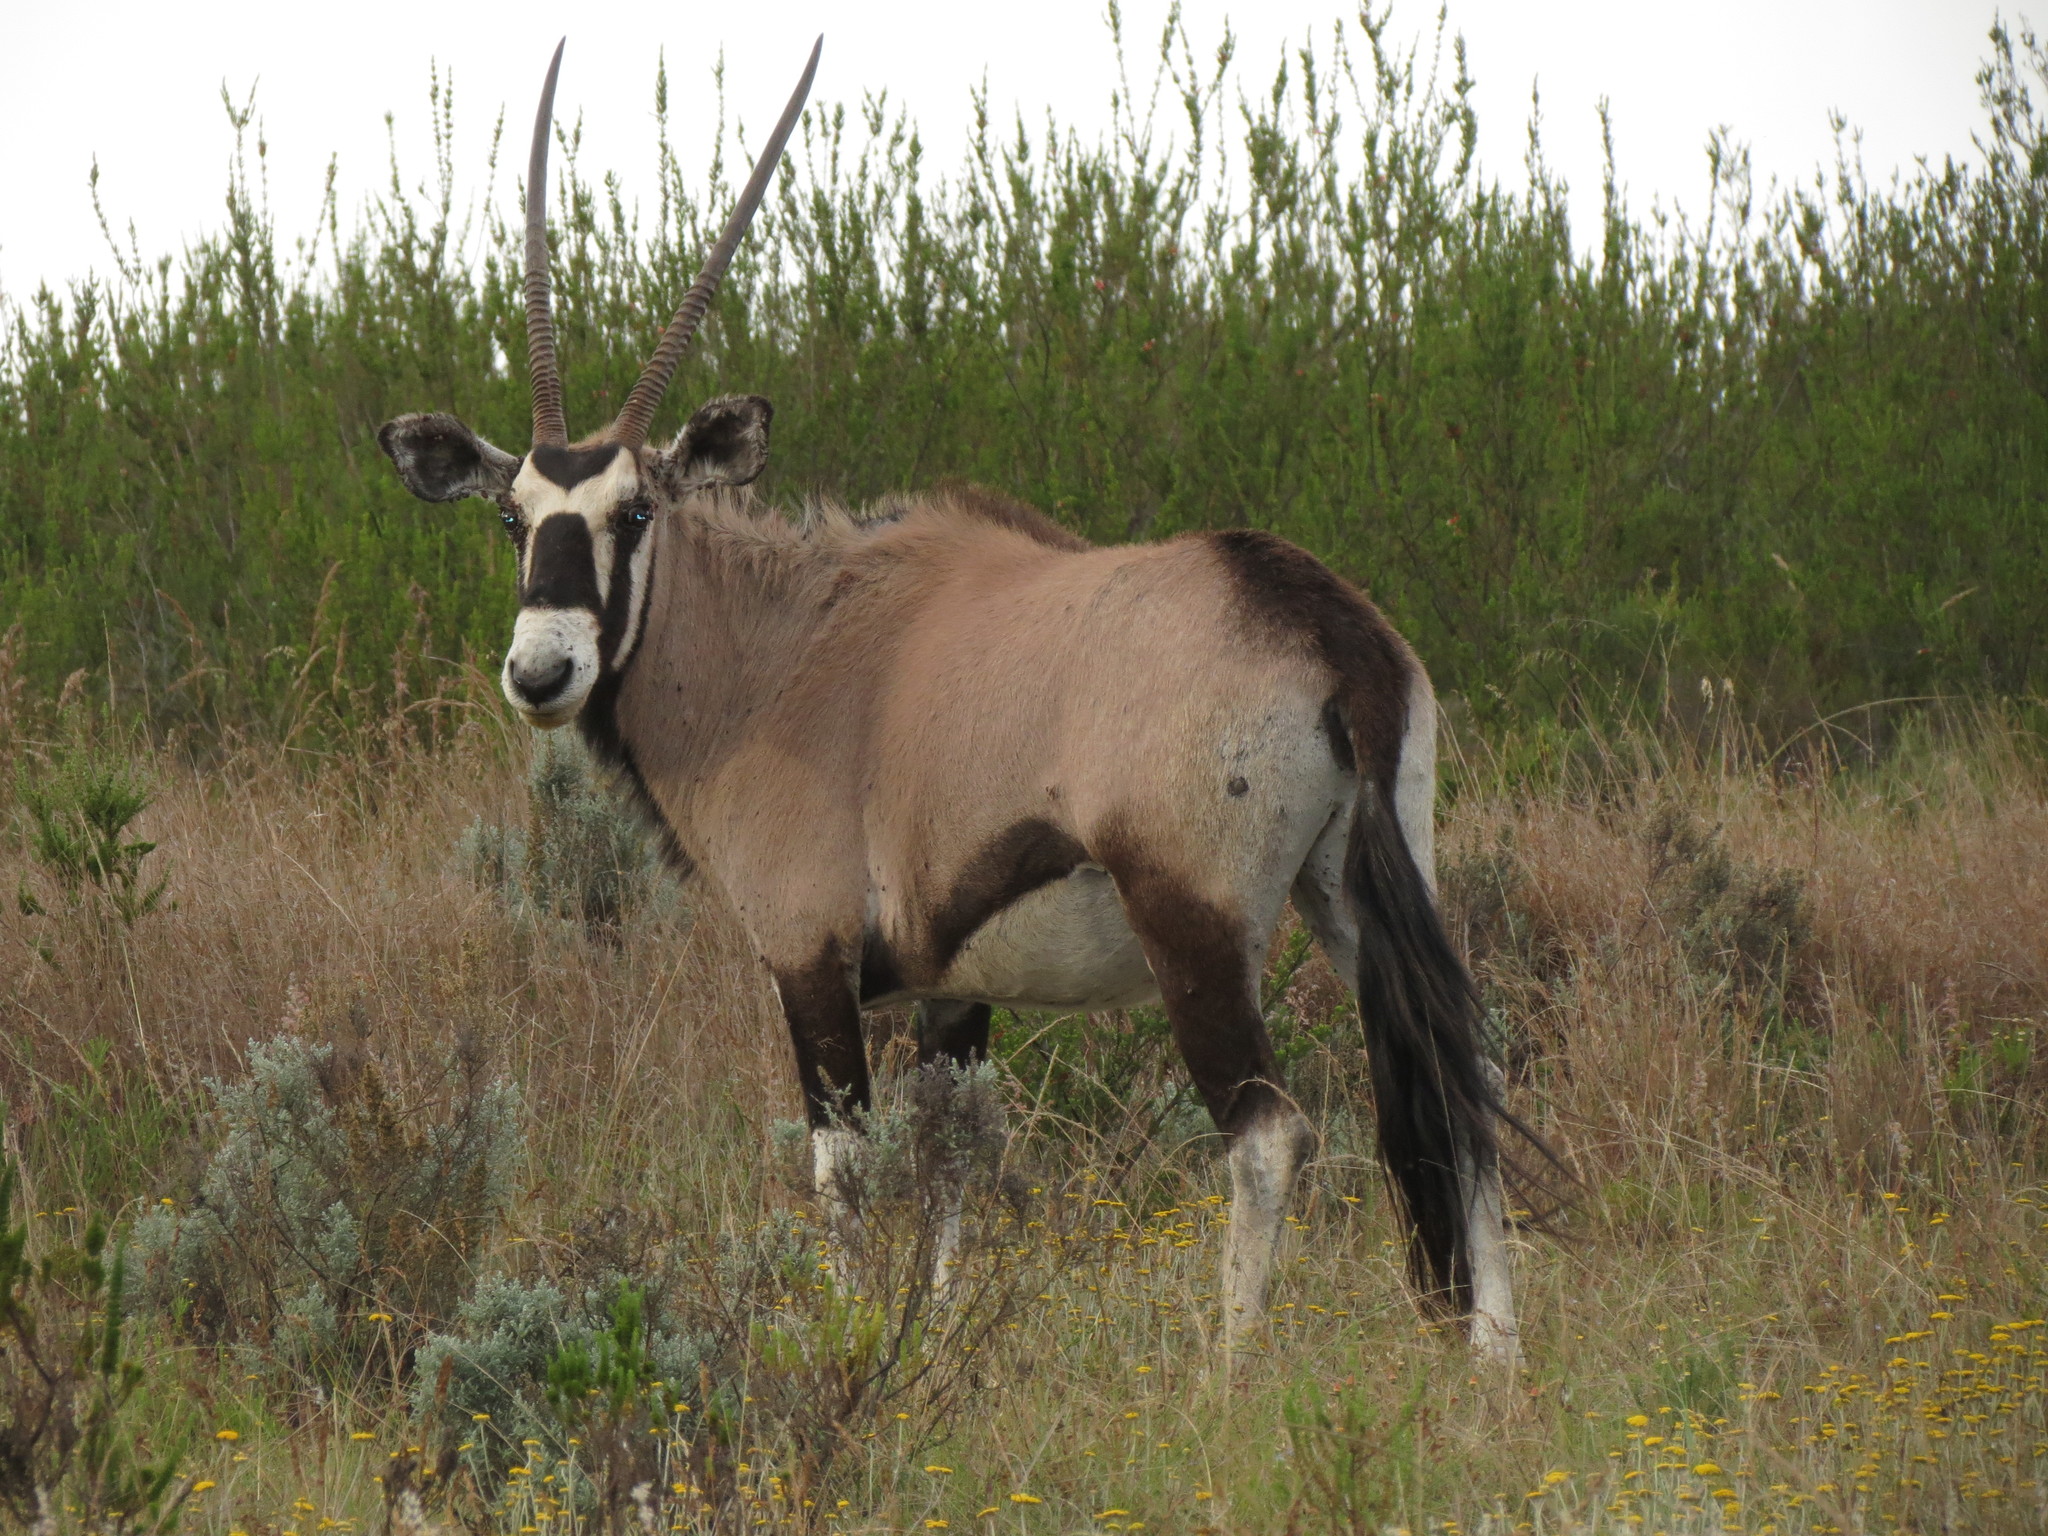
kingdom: Animalia
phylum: Chordata
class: Mammalia
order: Artiodactyla
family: Bovidae
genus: Oryx
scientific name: Oryx gazella
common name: Gemsbok
